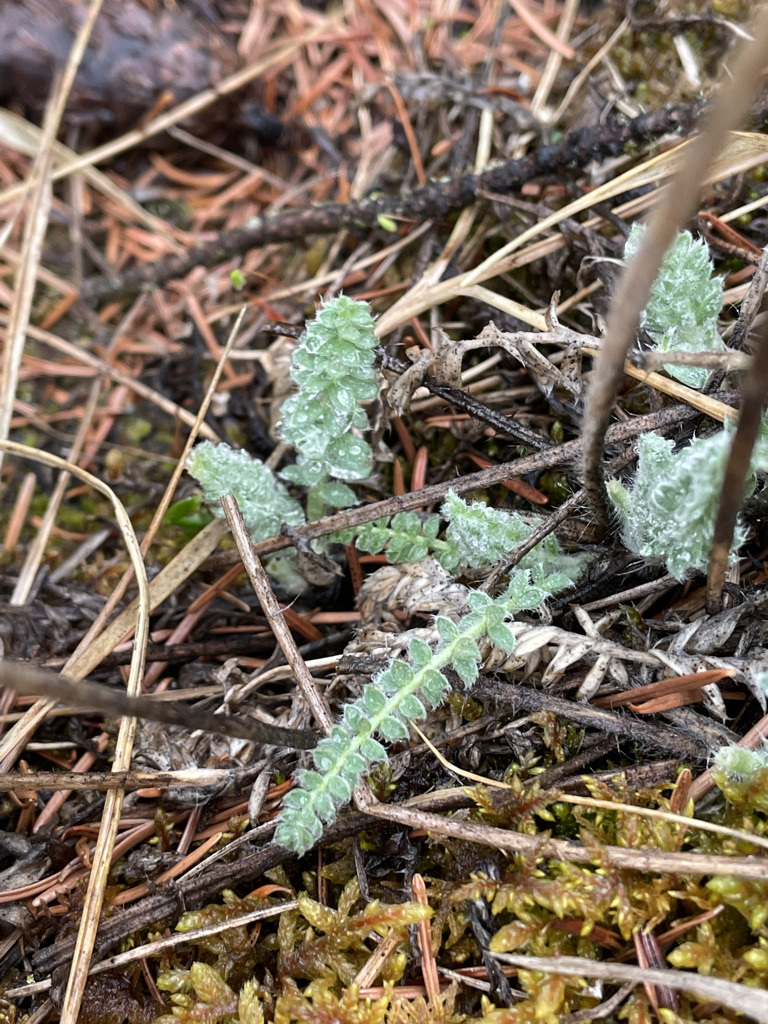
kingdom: Plantae
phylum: Tracheophyta
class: Magnoliopsida
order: Fabales
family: Fabaceae
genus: Oxytropis
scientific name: Oxytropis splendens
